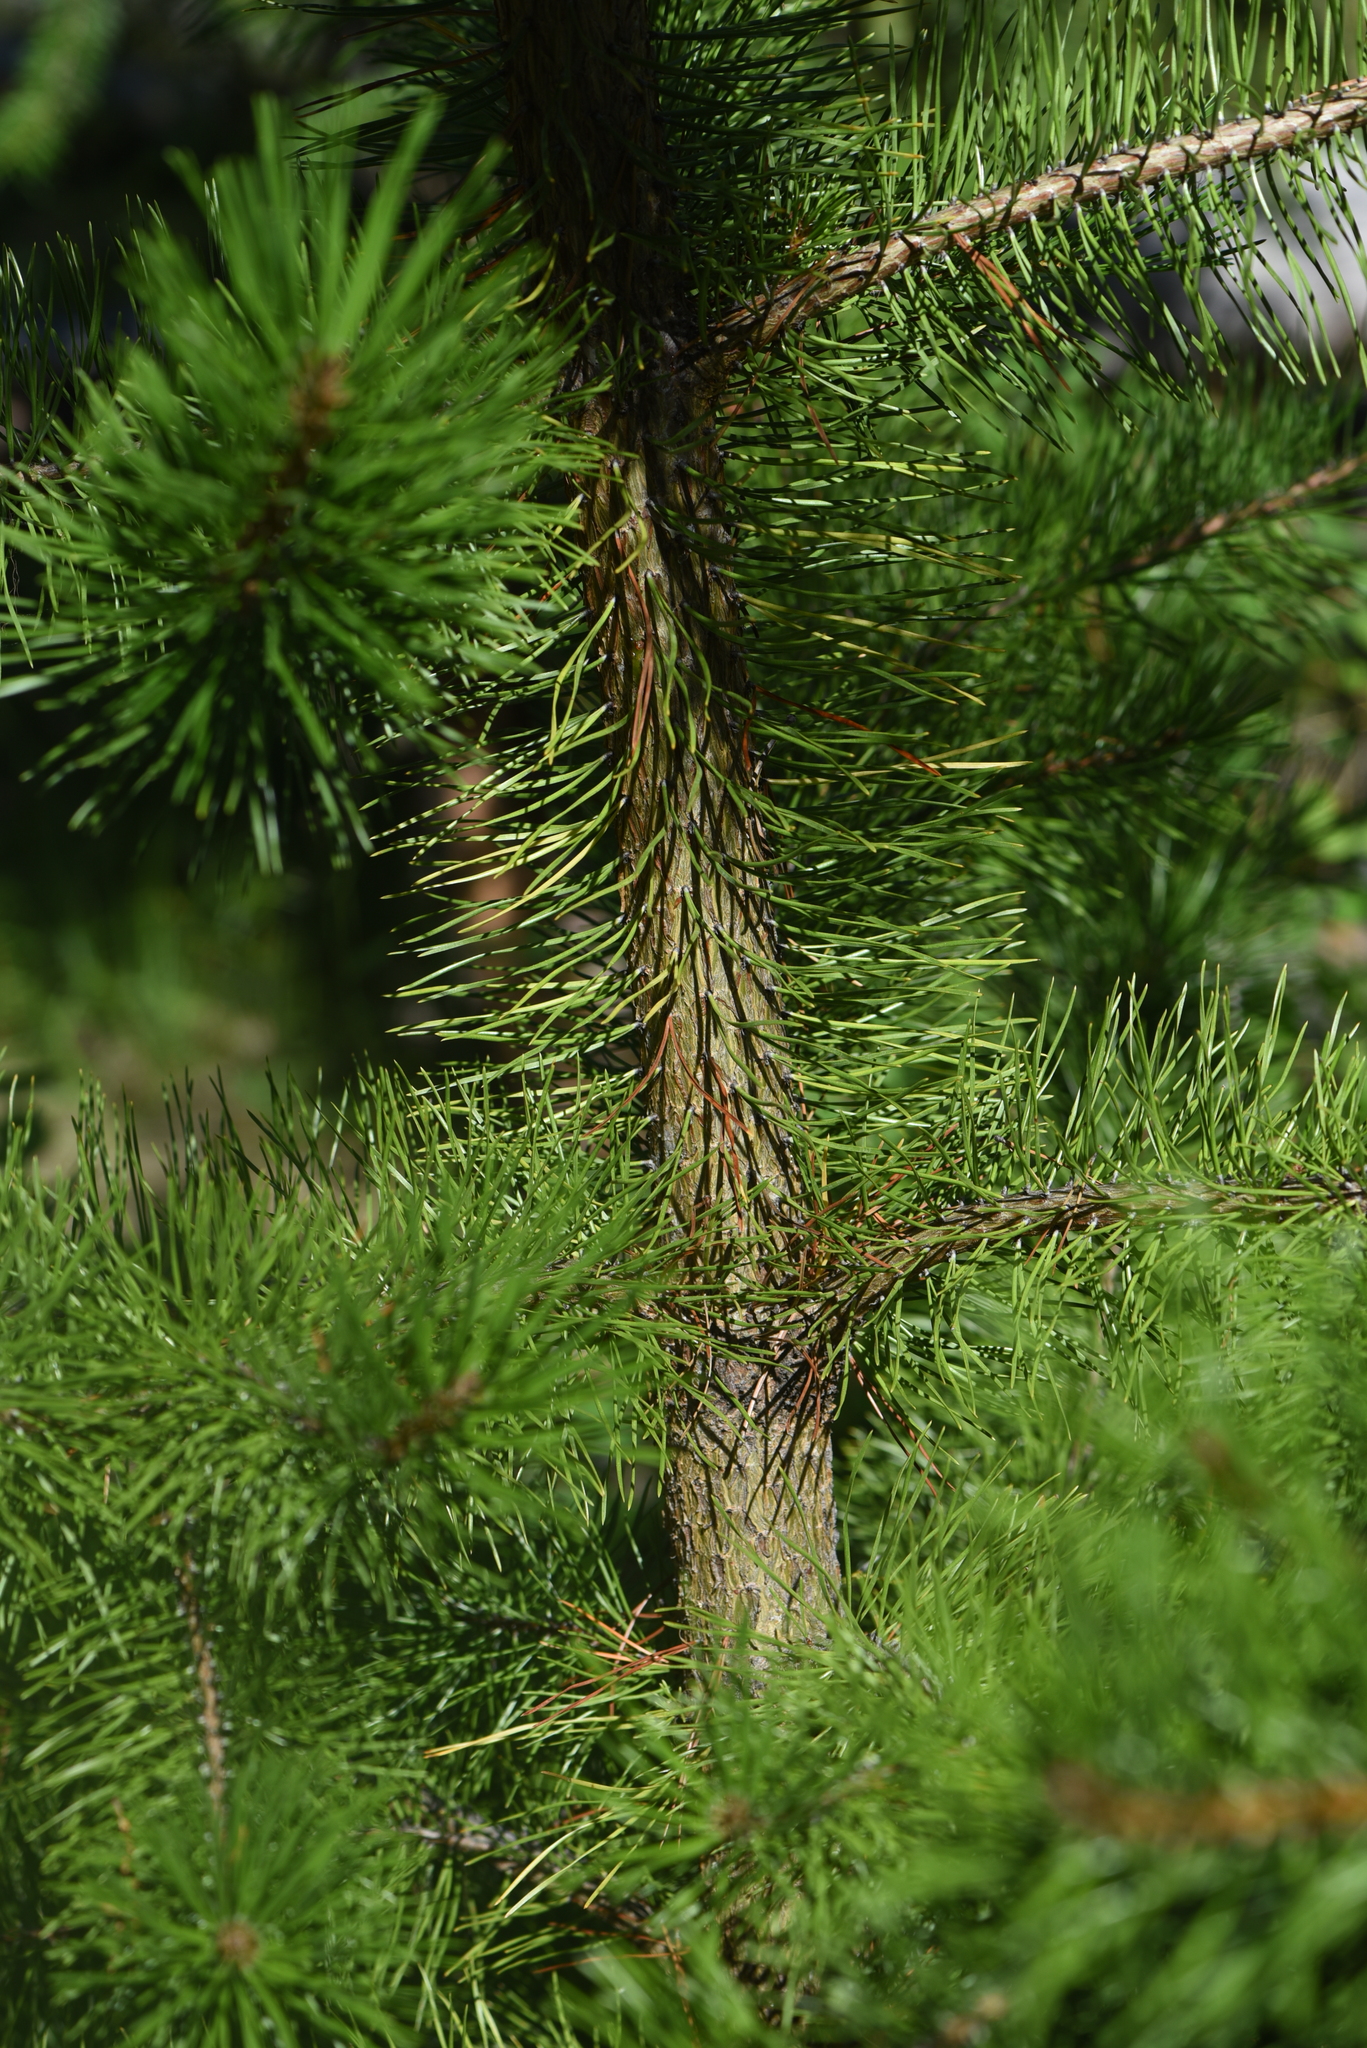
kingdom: Plantae
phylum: Tracheophyta
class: Pinopsida
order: Pinales
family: Pinaceae
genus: Pinus
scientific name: Pinus contorta
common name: Lodgepole pine
